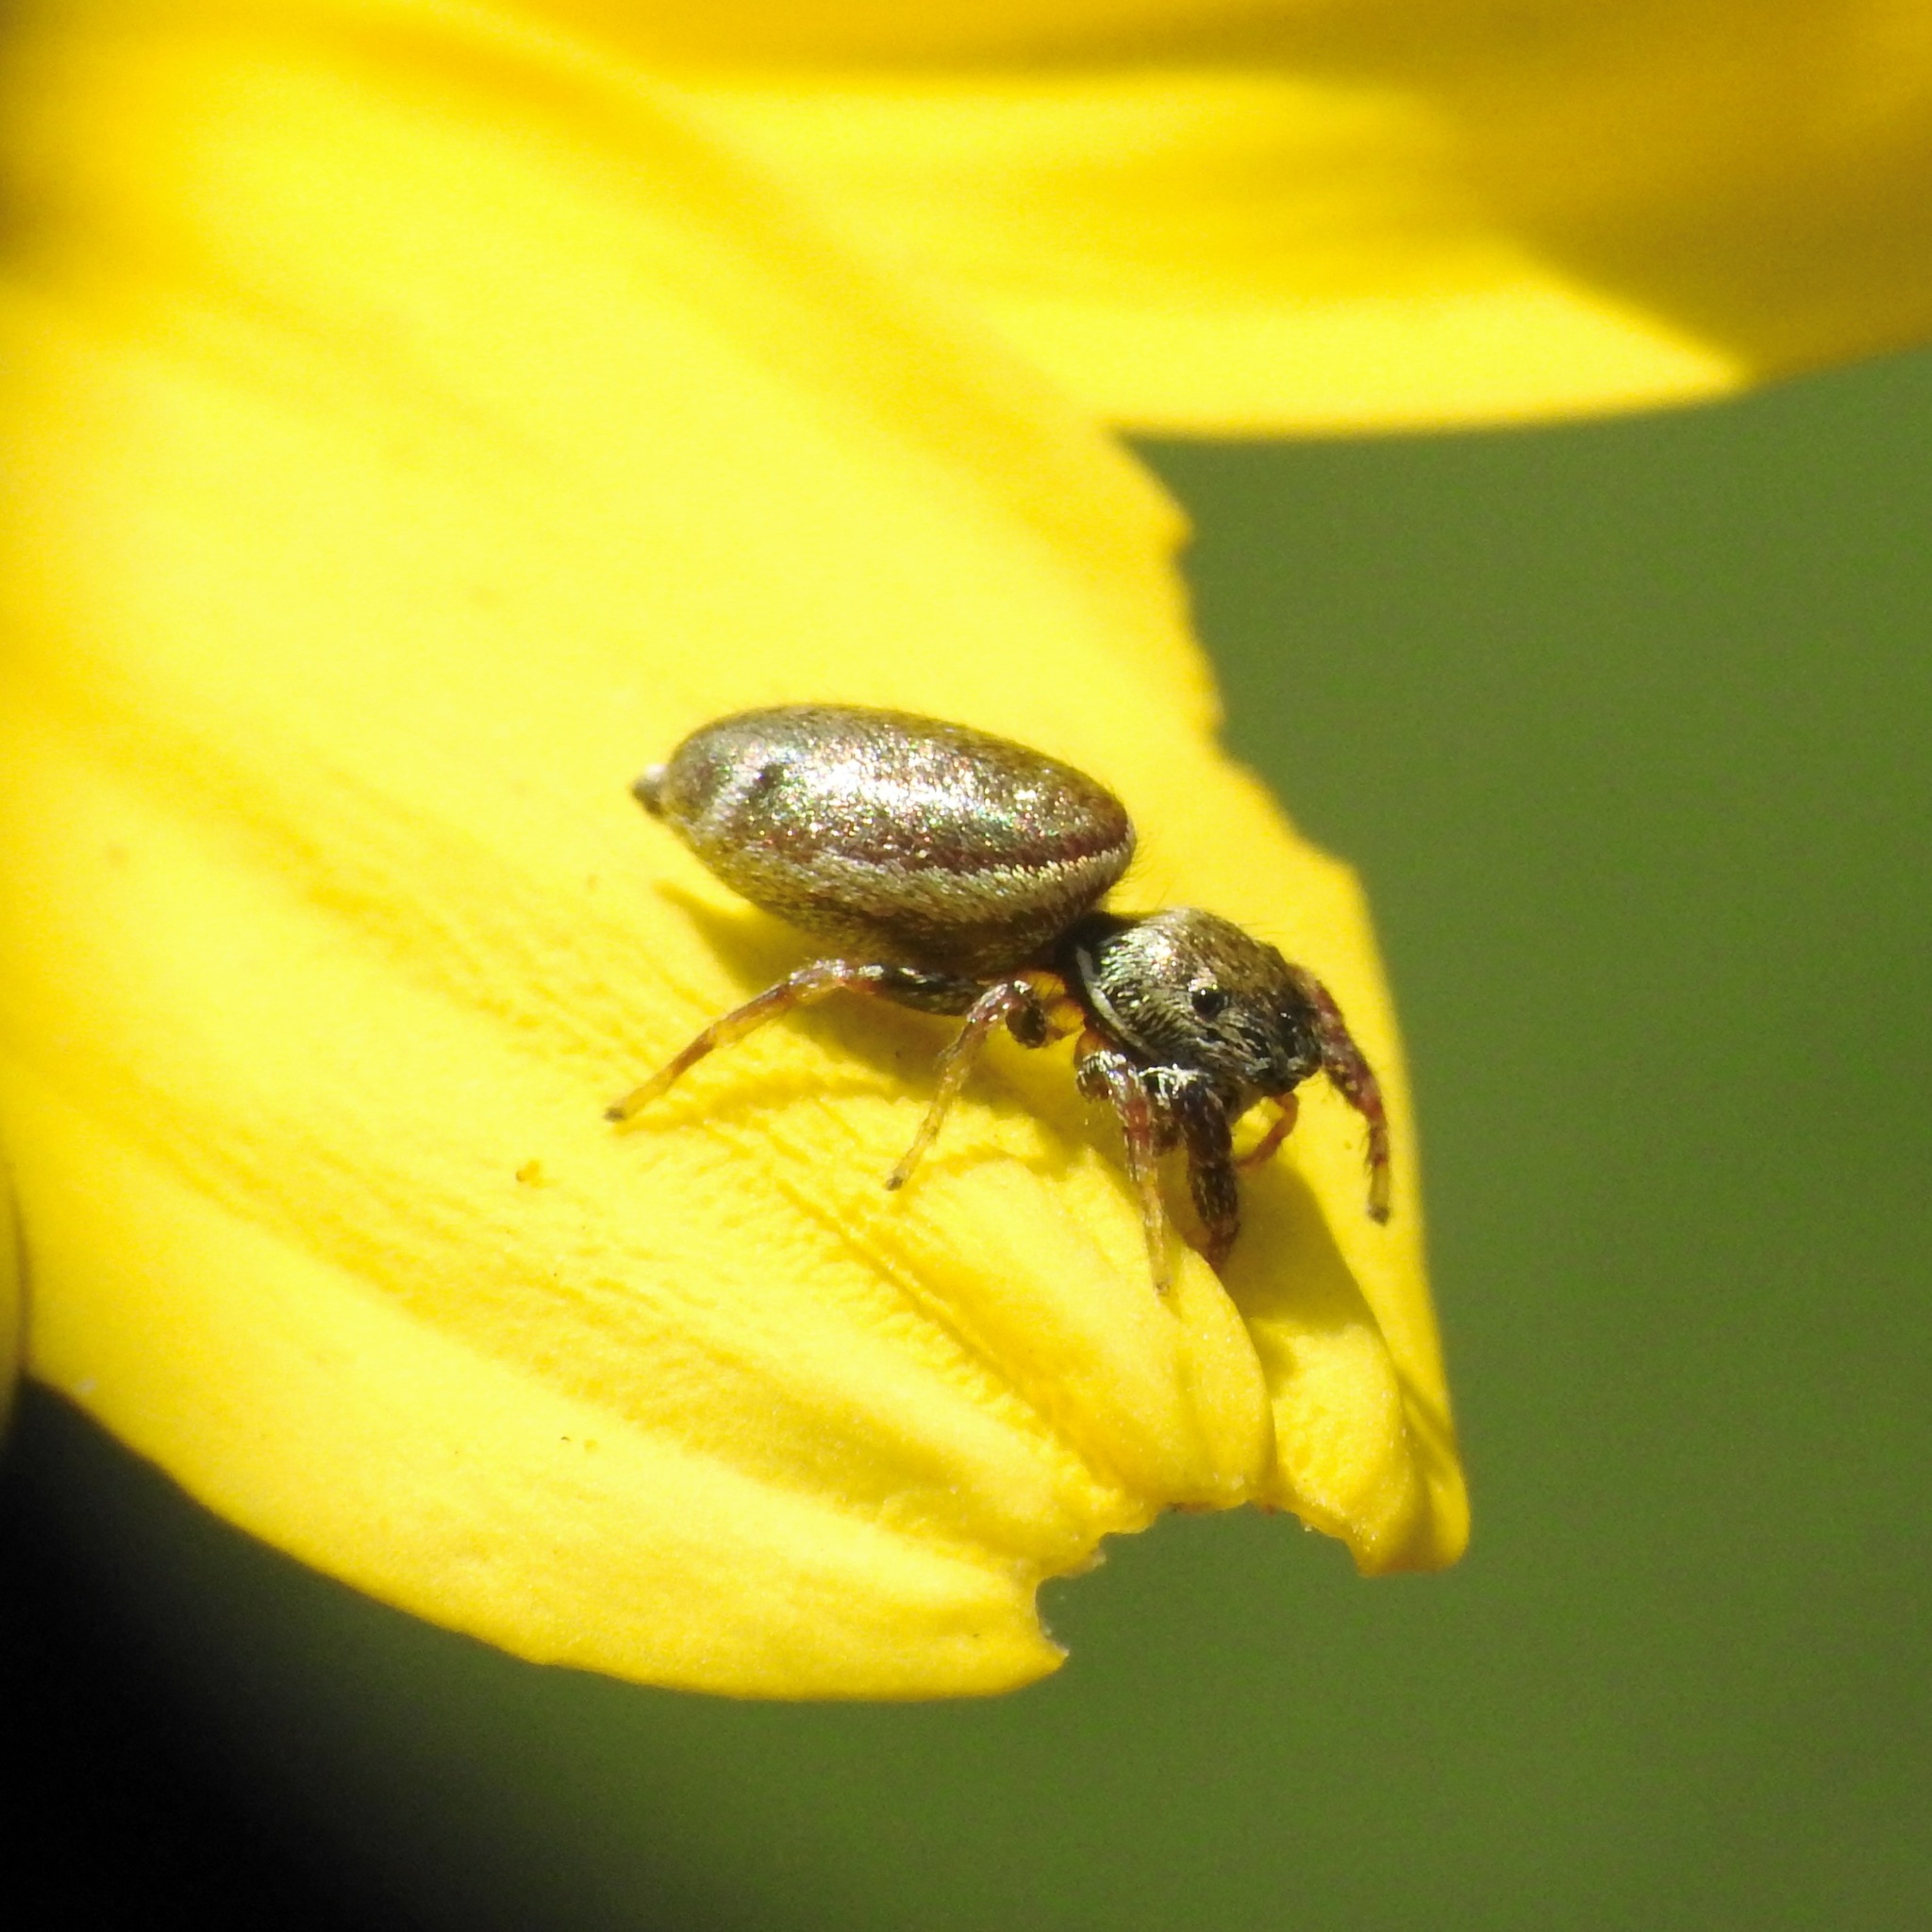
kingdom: Animalia
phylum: Arthropoda
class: Arachnida
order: Araneae
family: Salticidae
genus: Sassacus
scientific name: Sassacus vitis
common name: Jumping spiders
